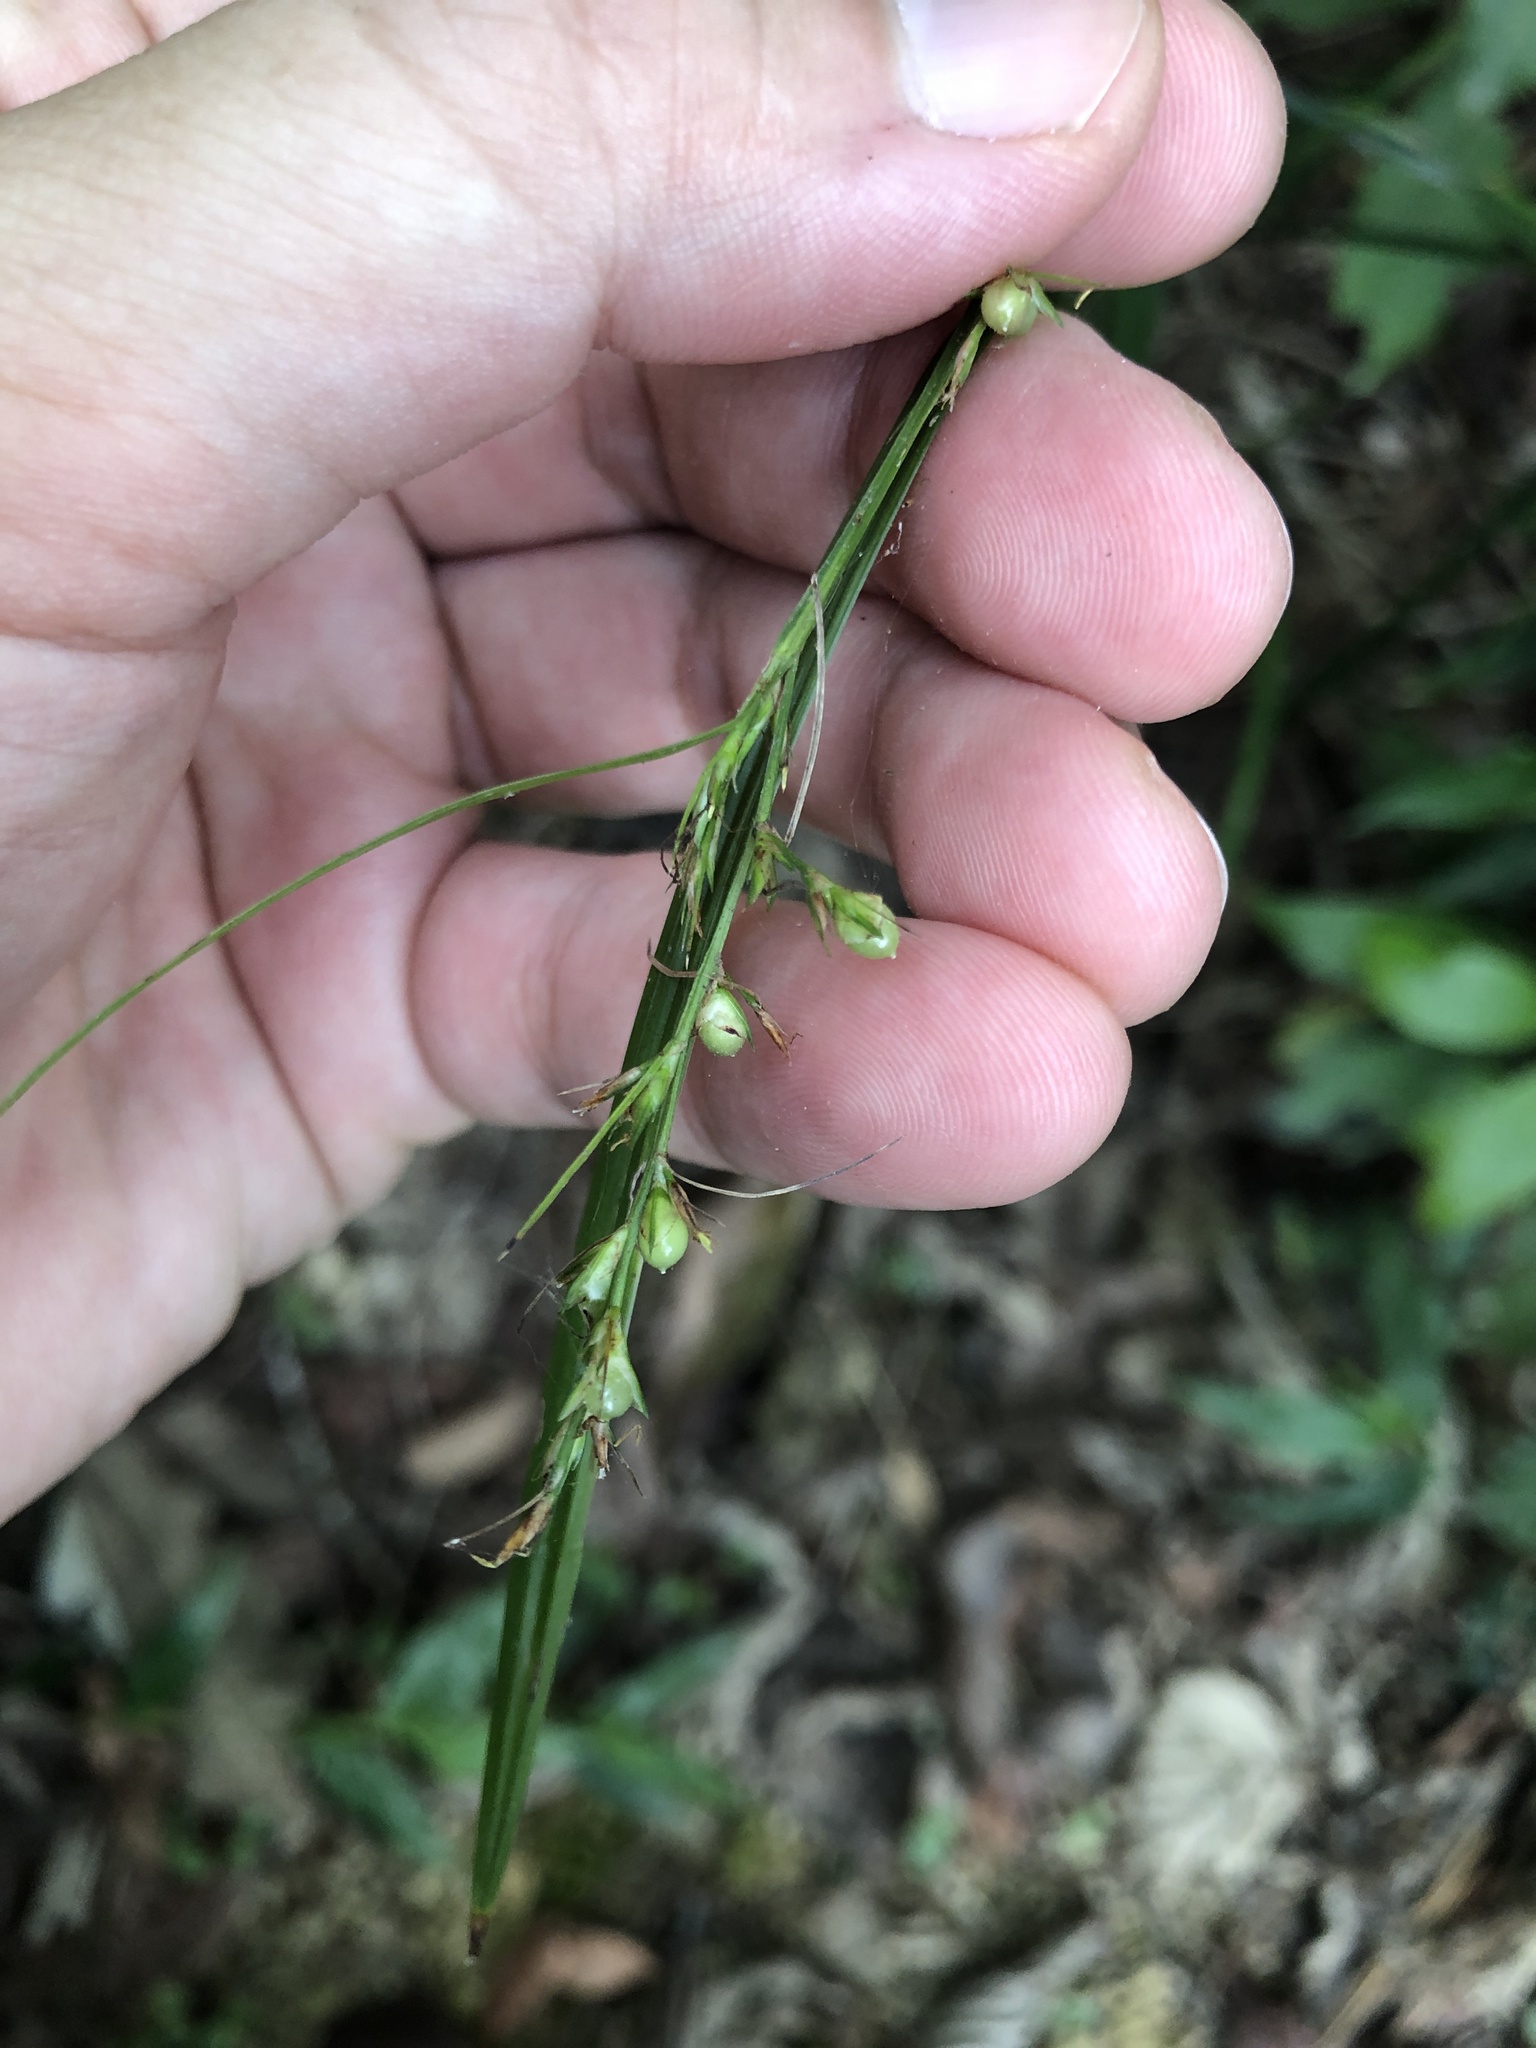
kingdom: Plantae
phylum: Tracheophyta
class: Liliopsida
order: Poales
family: Cyperaceae
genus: Scleria
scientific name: Scleria terrestris
